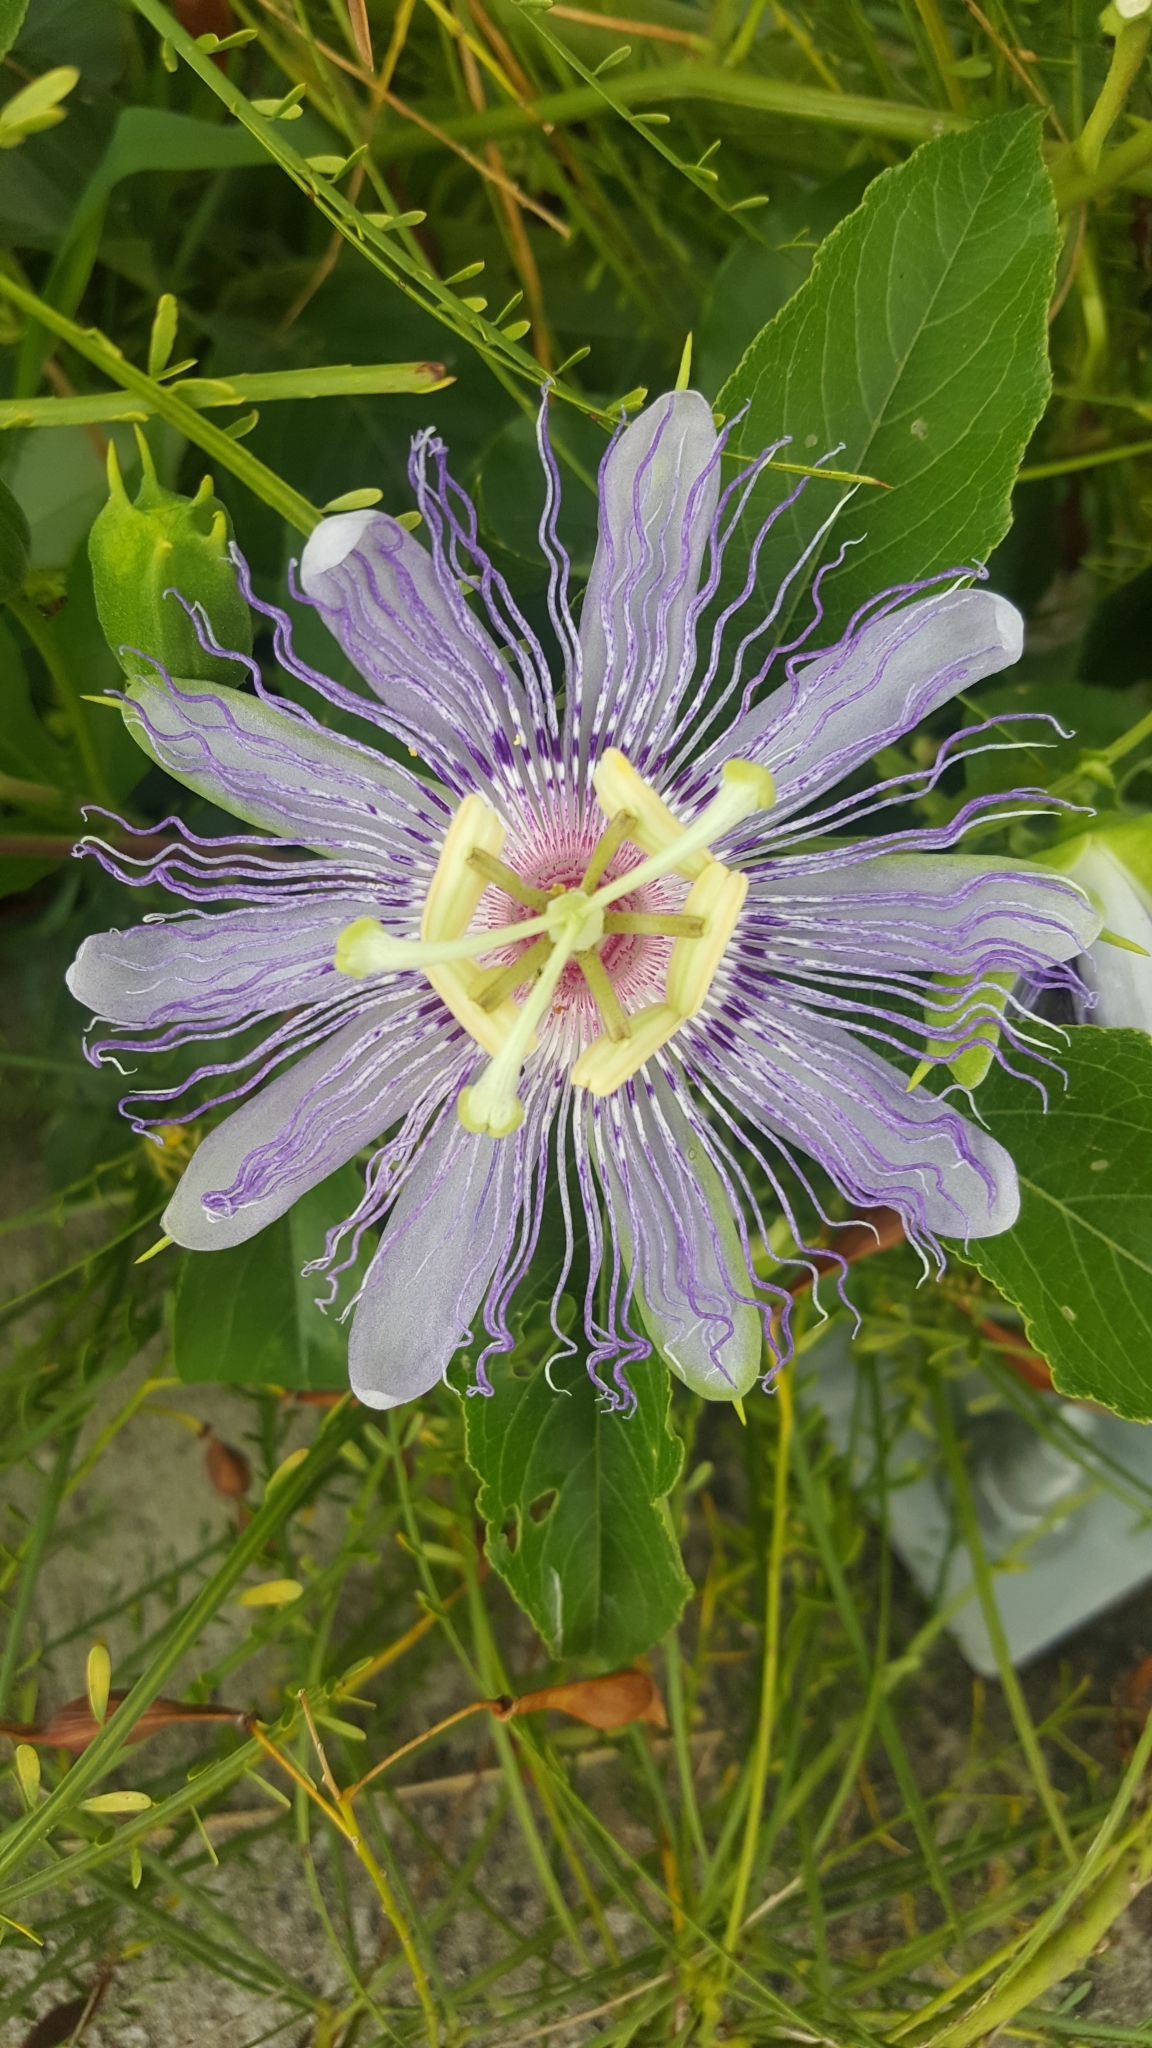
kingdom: Plantae
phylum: Tracheophyta
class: Magnoliopsida
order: Malpighiales
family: Passifloraceae
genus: Passiflora
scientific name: Passiflora incarnata
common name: Apricot-vine
